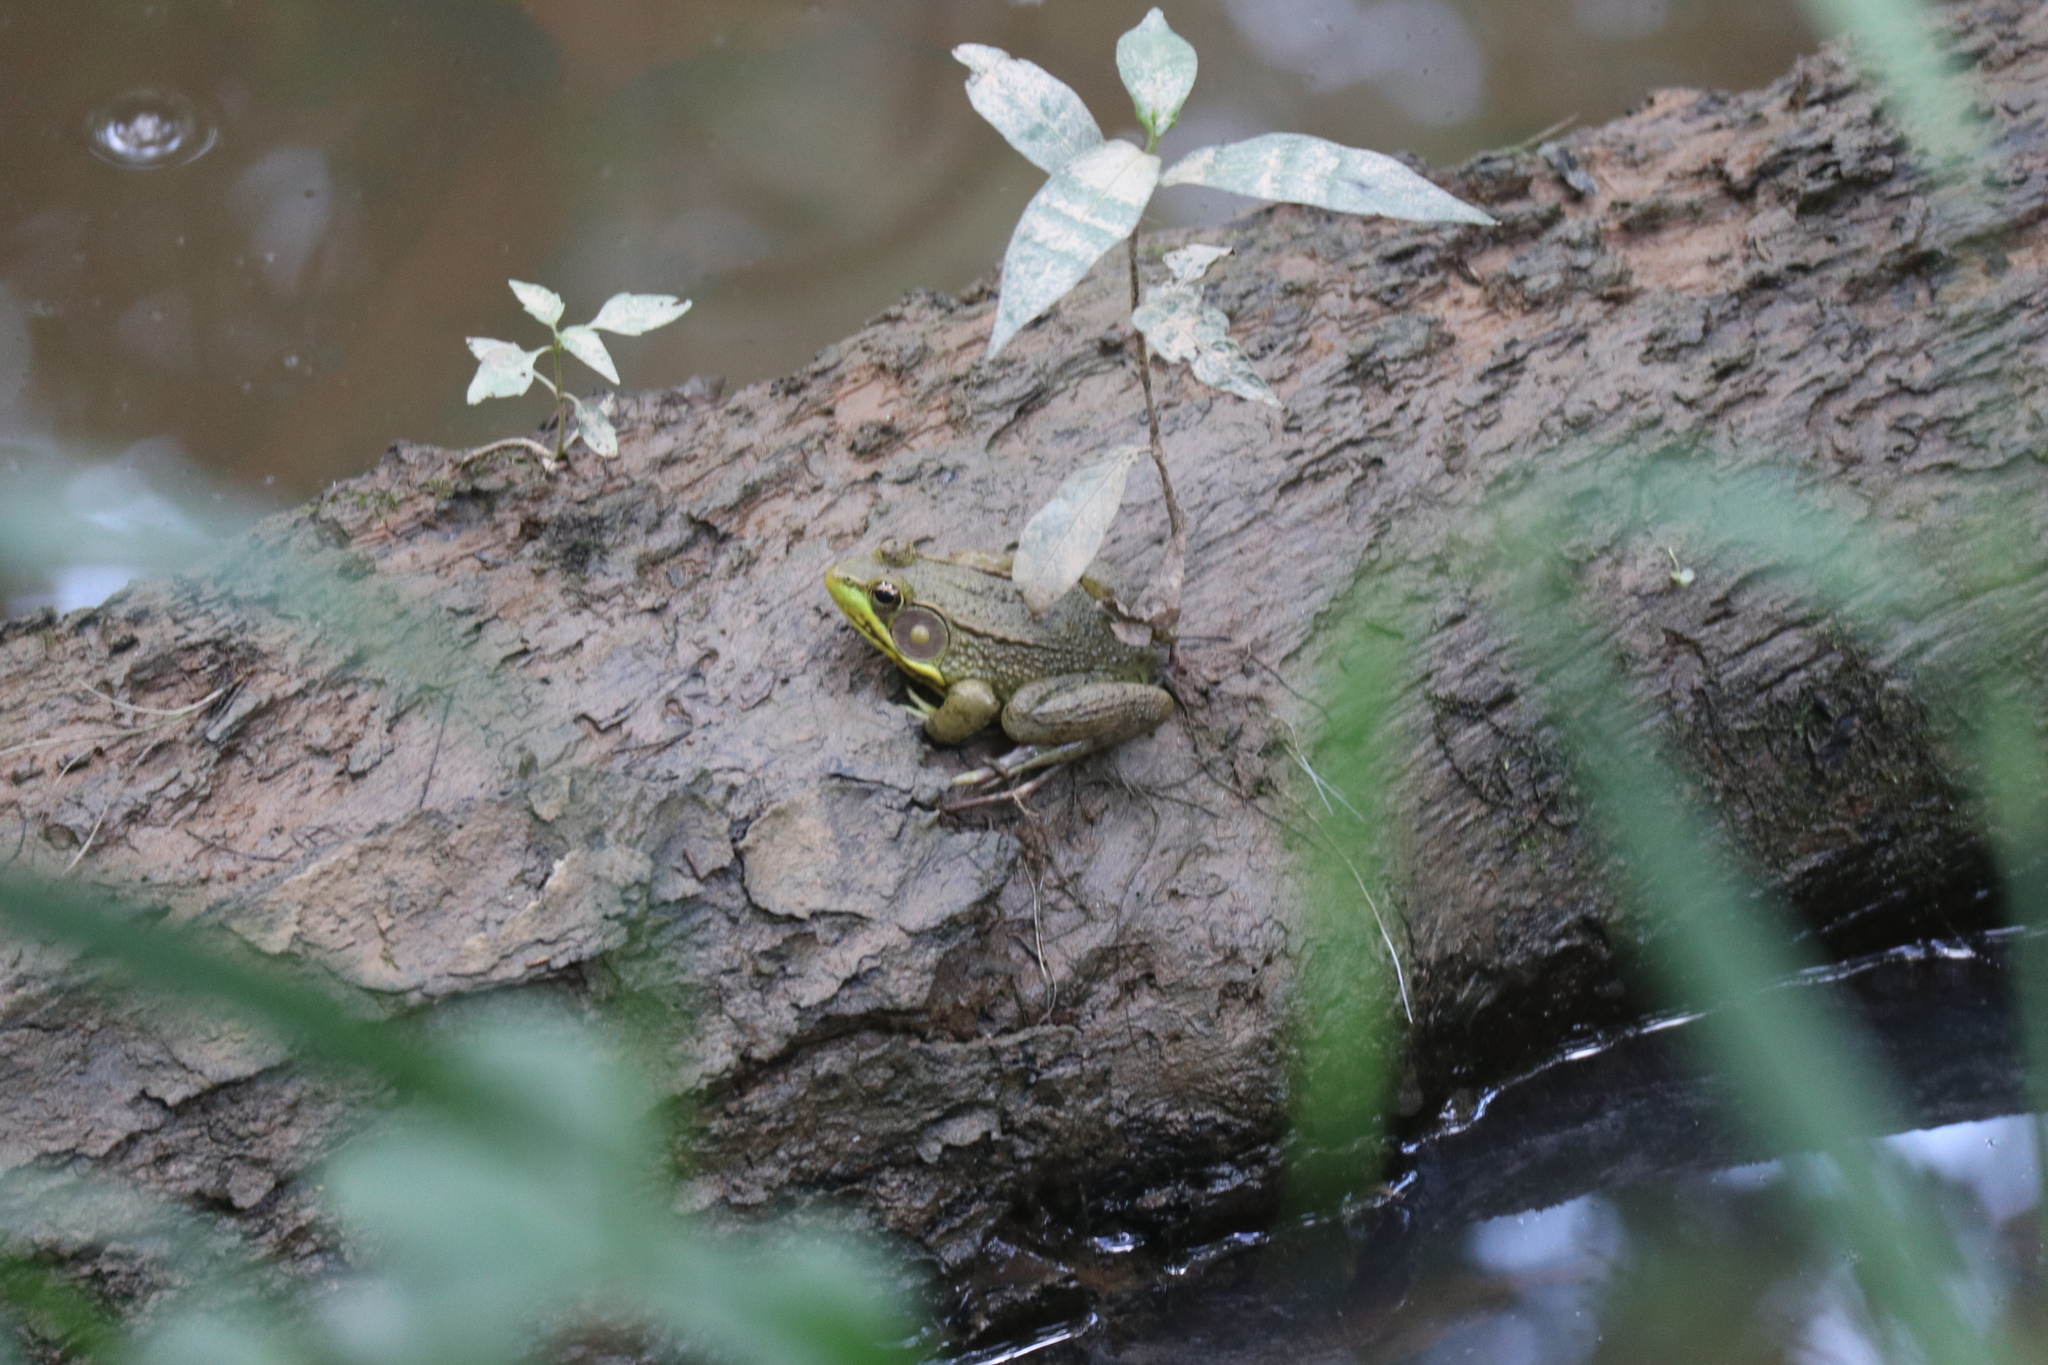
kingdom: Animalia
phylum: Chordata
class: Amphibia
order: Anura
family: Ranidae
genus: Lithobates
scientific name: Lithobates clamitans
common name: Green frog
